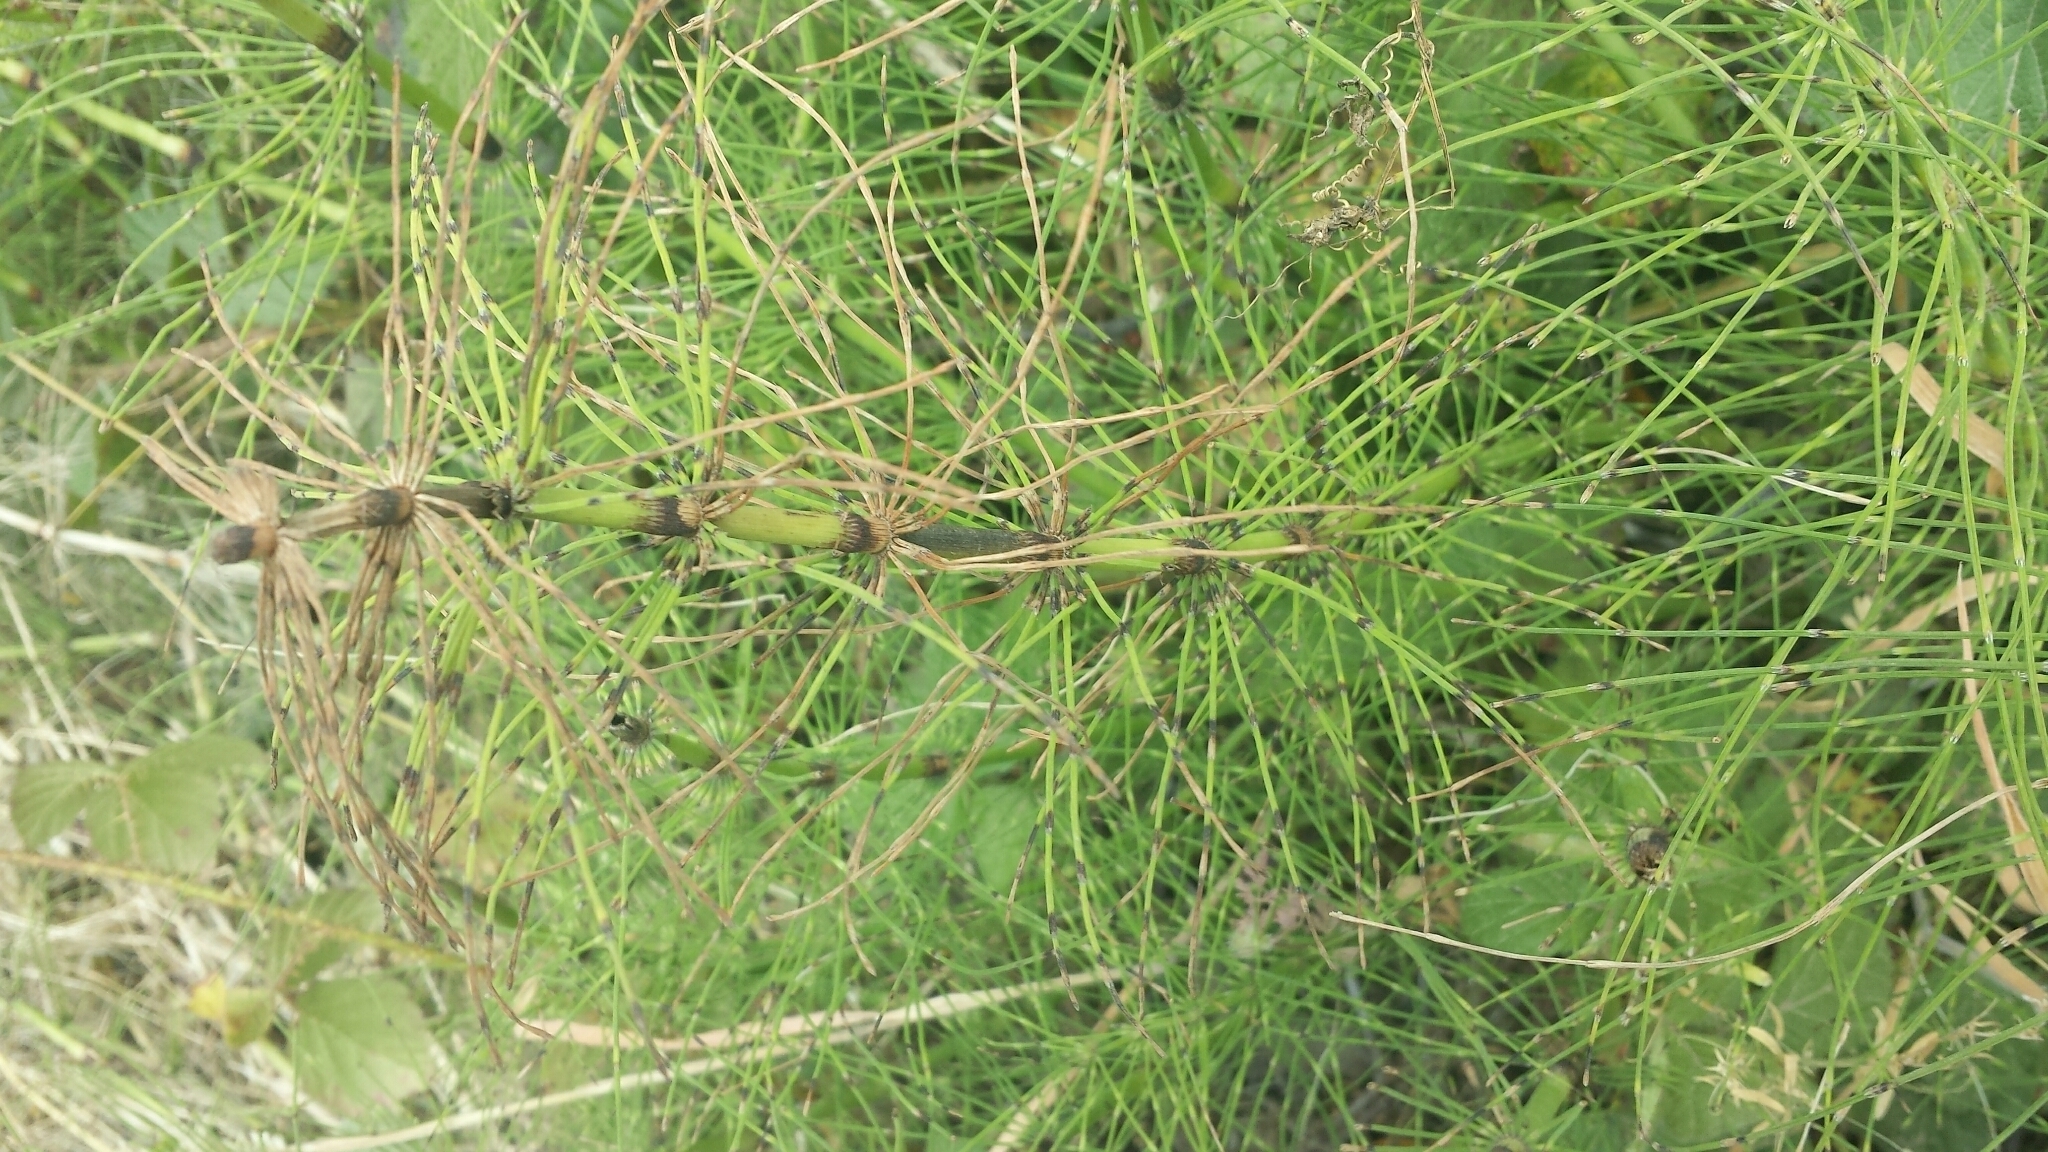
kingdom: Plantae
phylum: Tracheophyta
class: Polypodiopsida
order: Equisetales
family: Equisetaceae
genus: Equisetum
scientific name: Equisetum braunii
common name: Braun's horsetail
